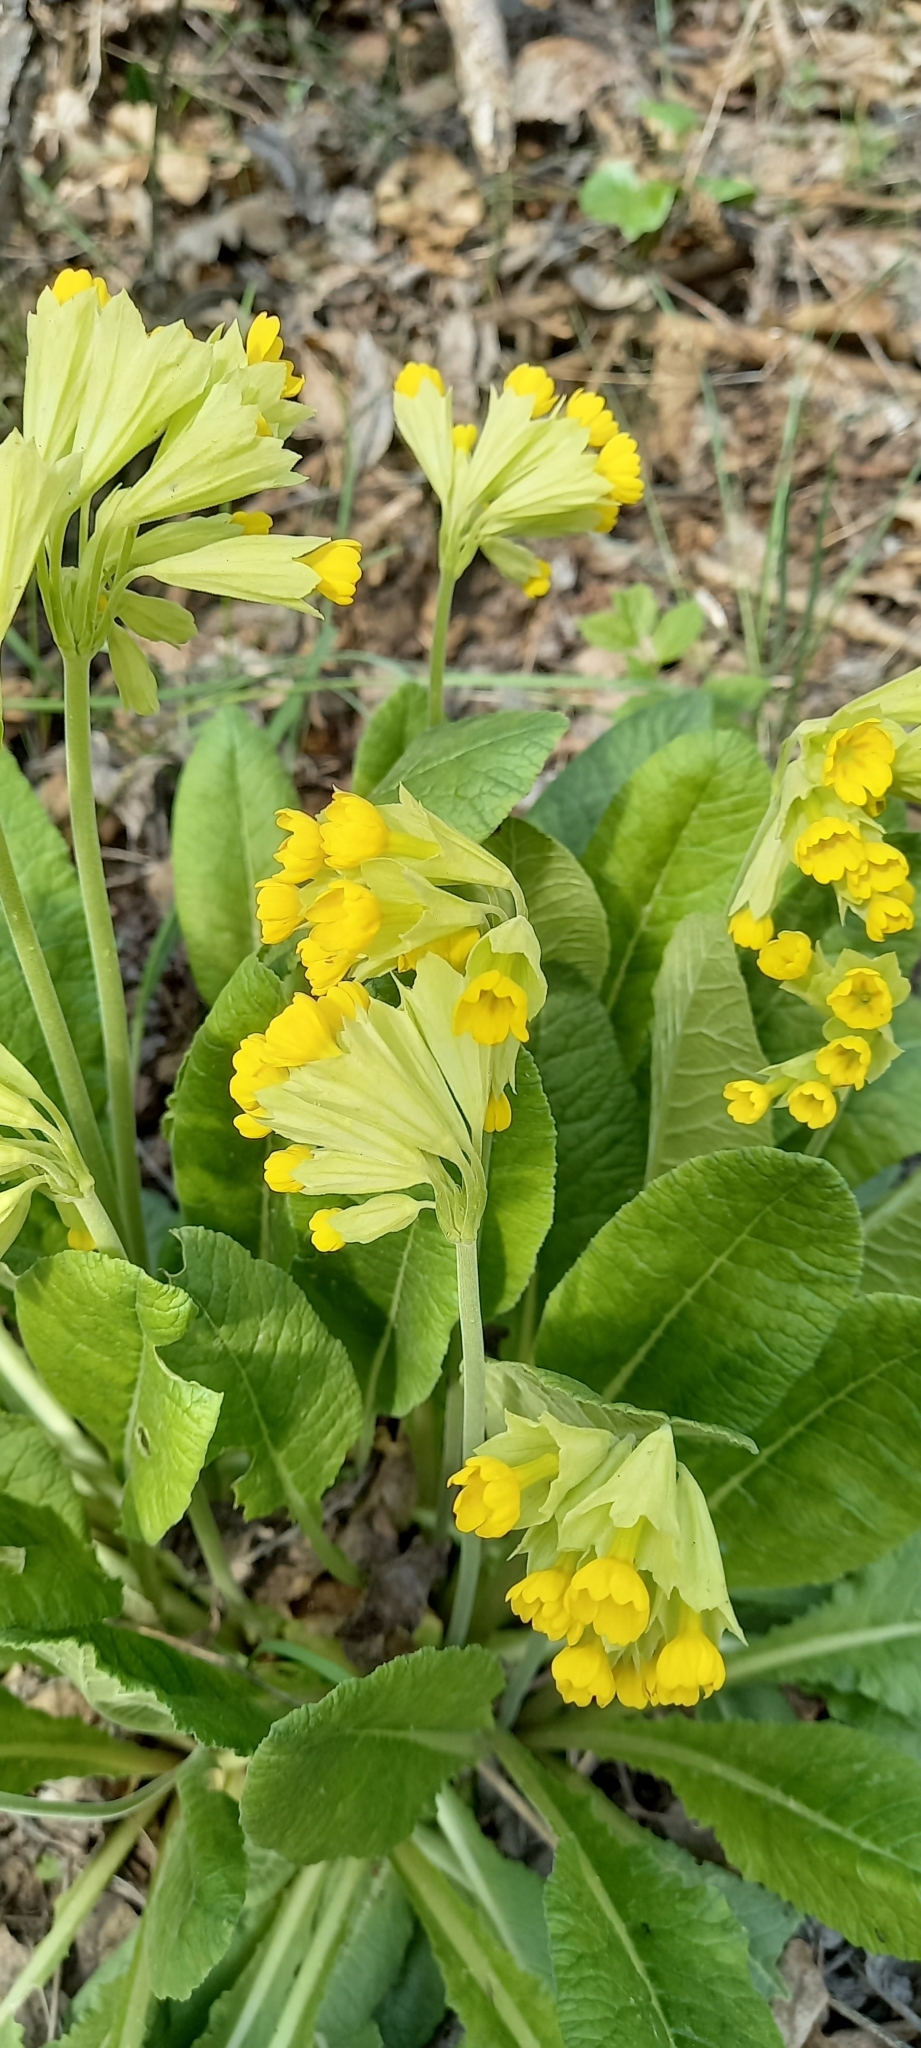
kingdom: Plantae
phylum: Tracheophyta
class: Magnoliopsida
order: Ericales
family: Primulaceae
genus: Primula
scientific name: Primula veris
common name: Cowslip
